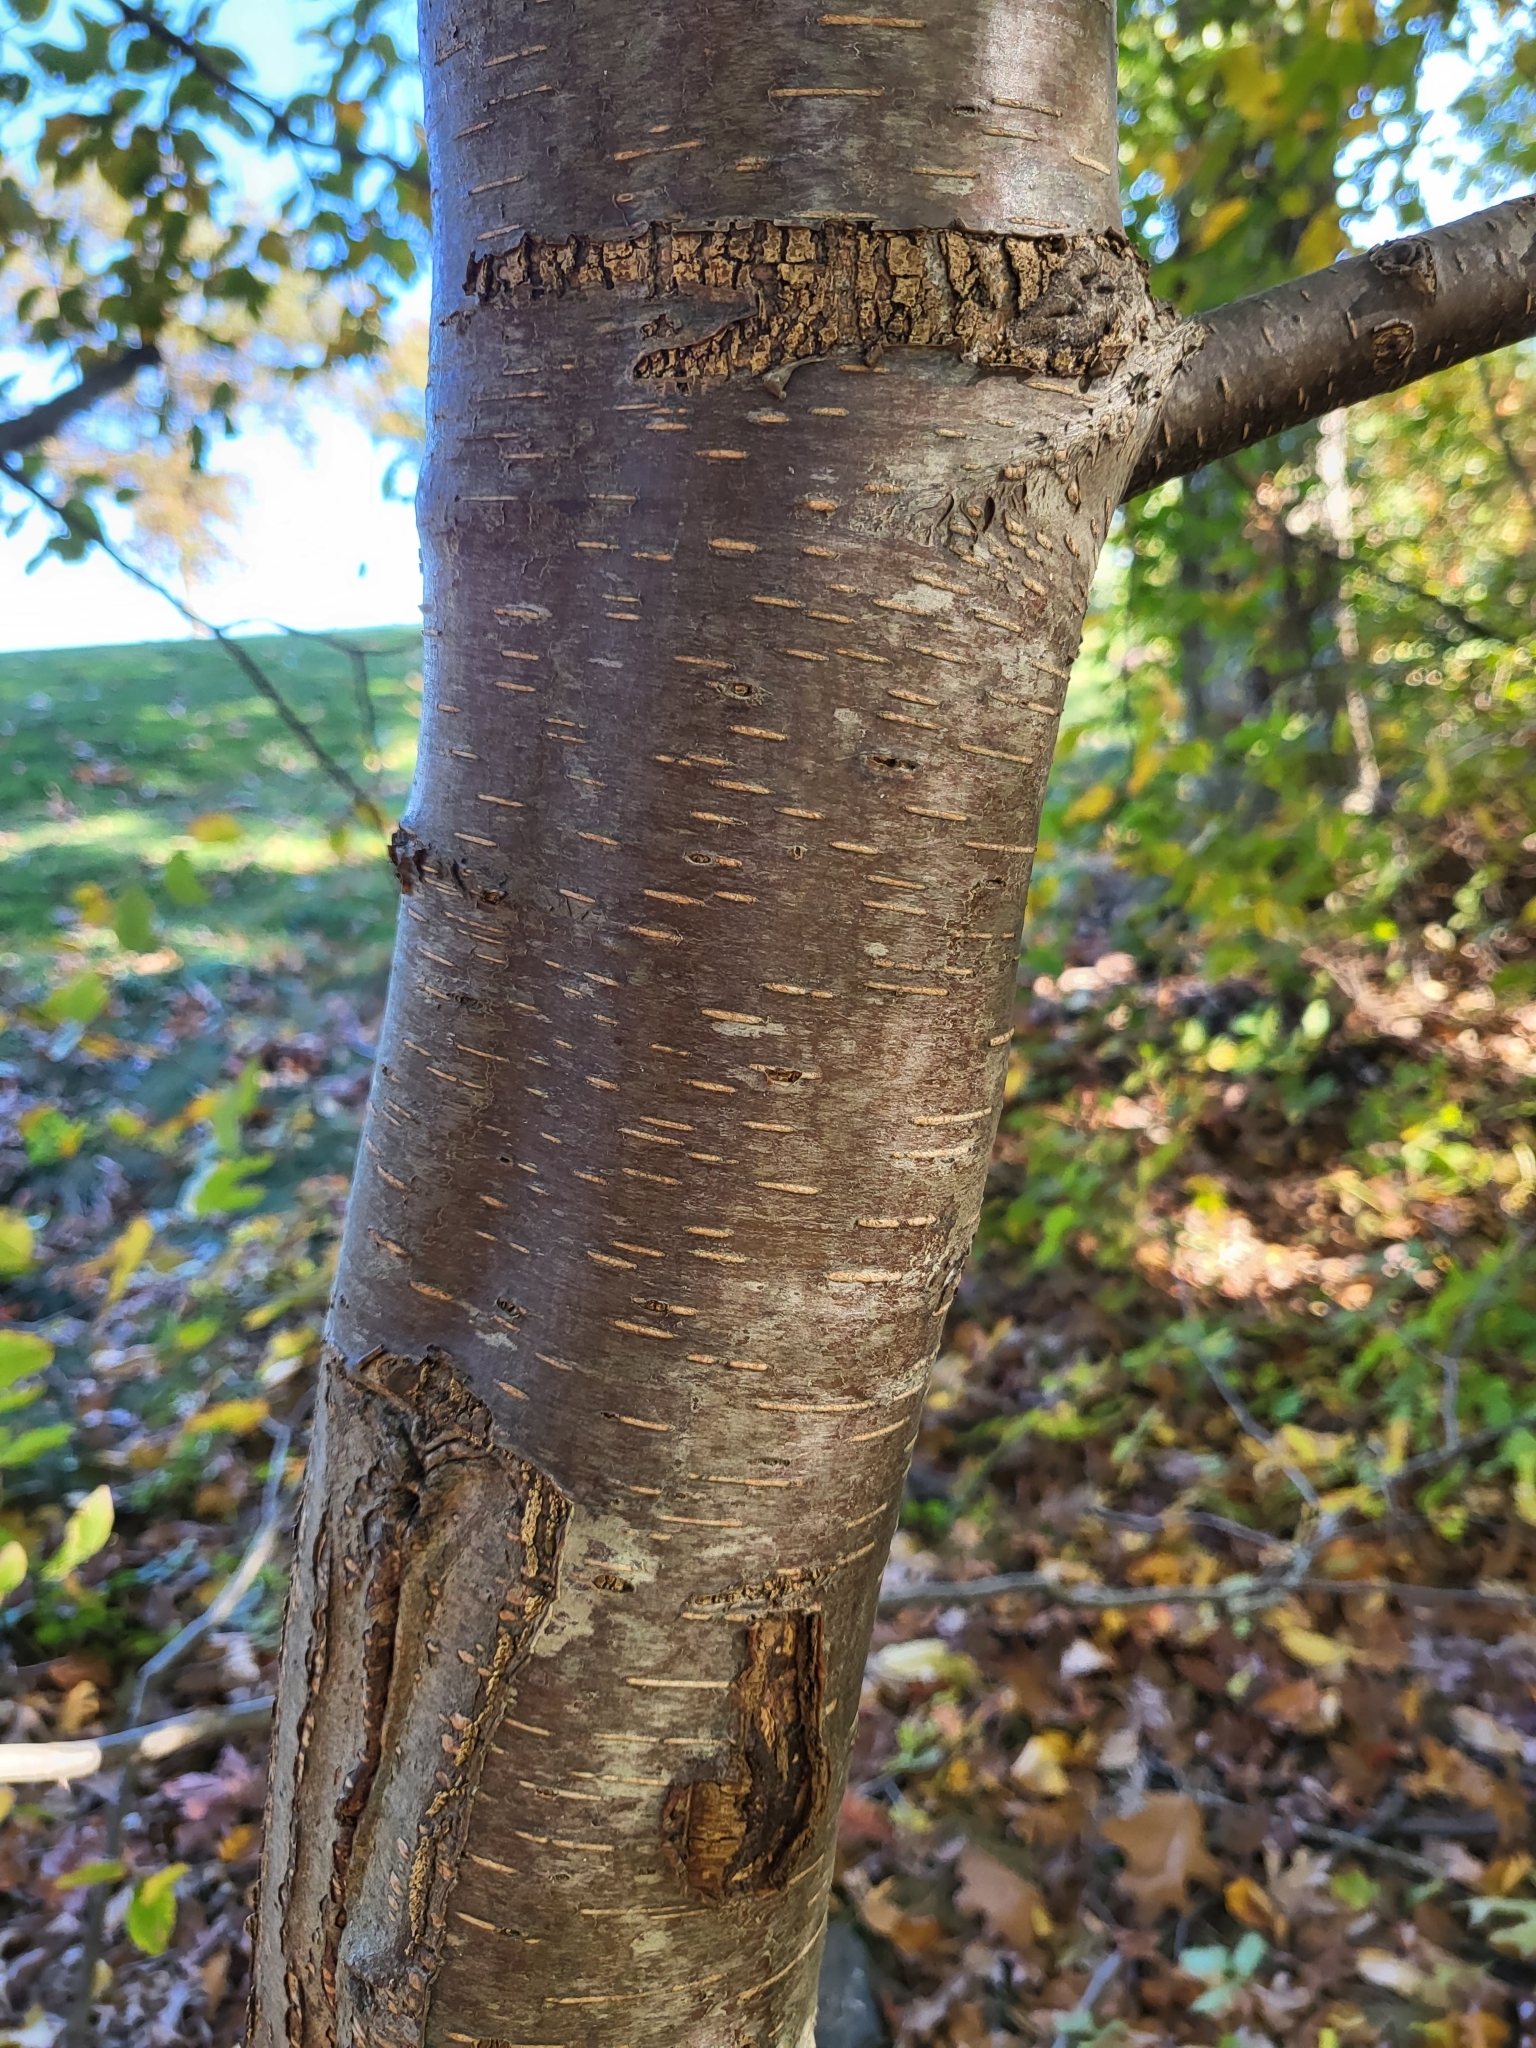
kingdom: Plantae
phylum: Tracheophyta
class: Magnoliopsida
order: Fagales
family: Betulaceae
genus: Betula
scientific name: Betula lenta
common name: Black birch
